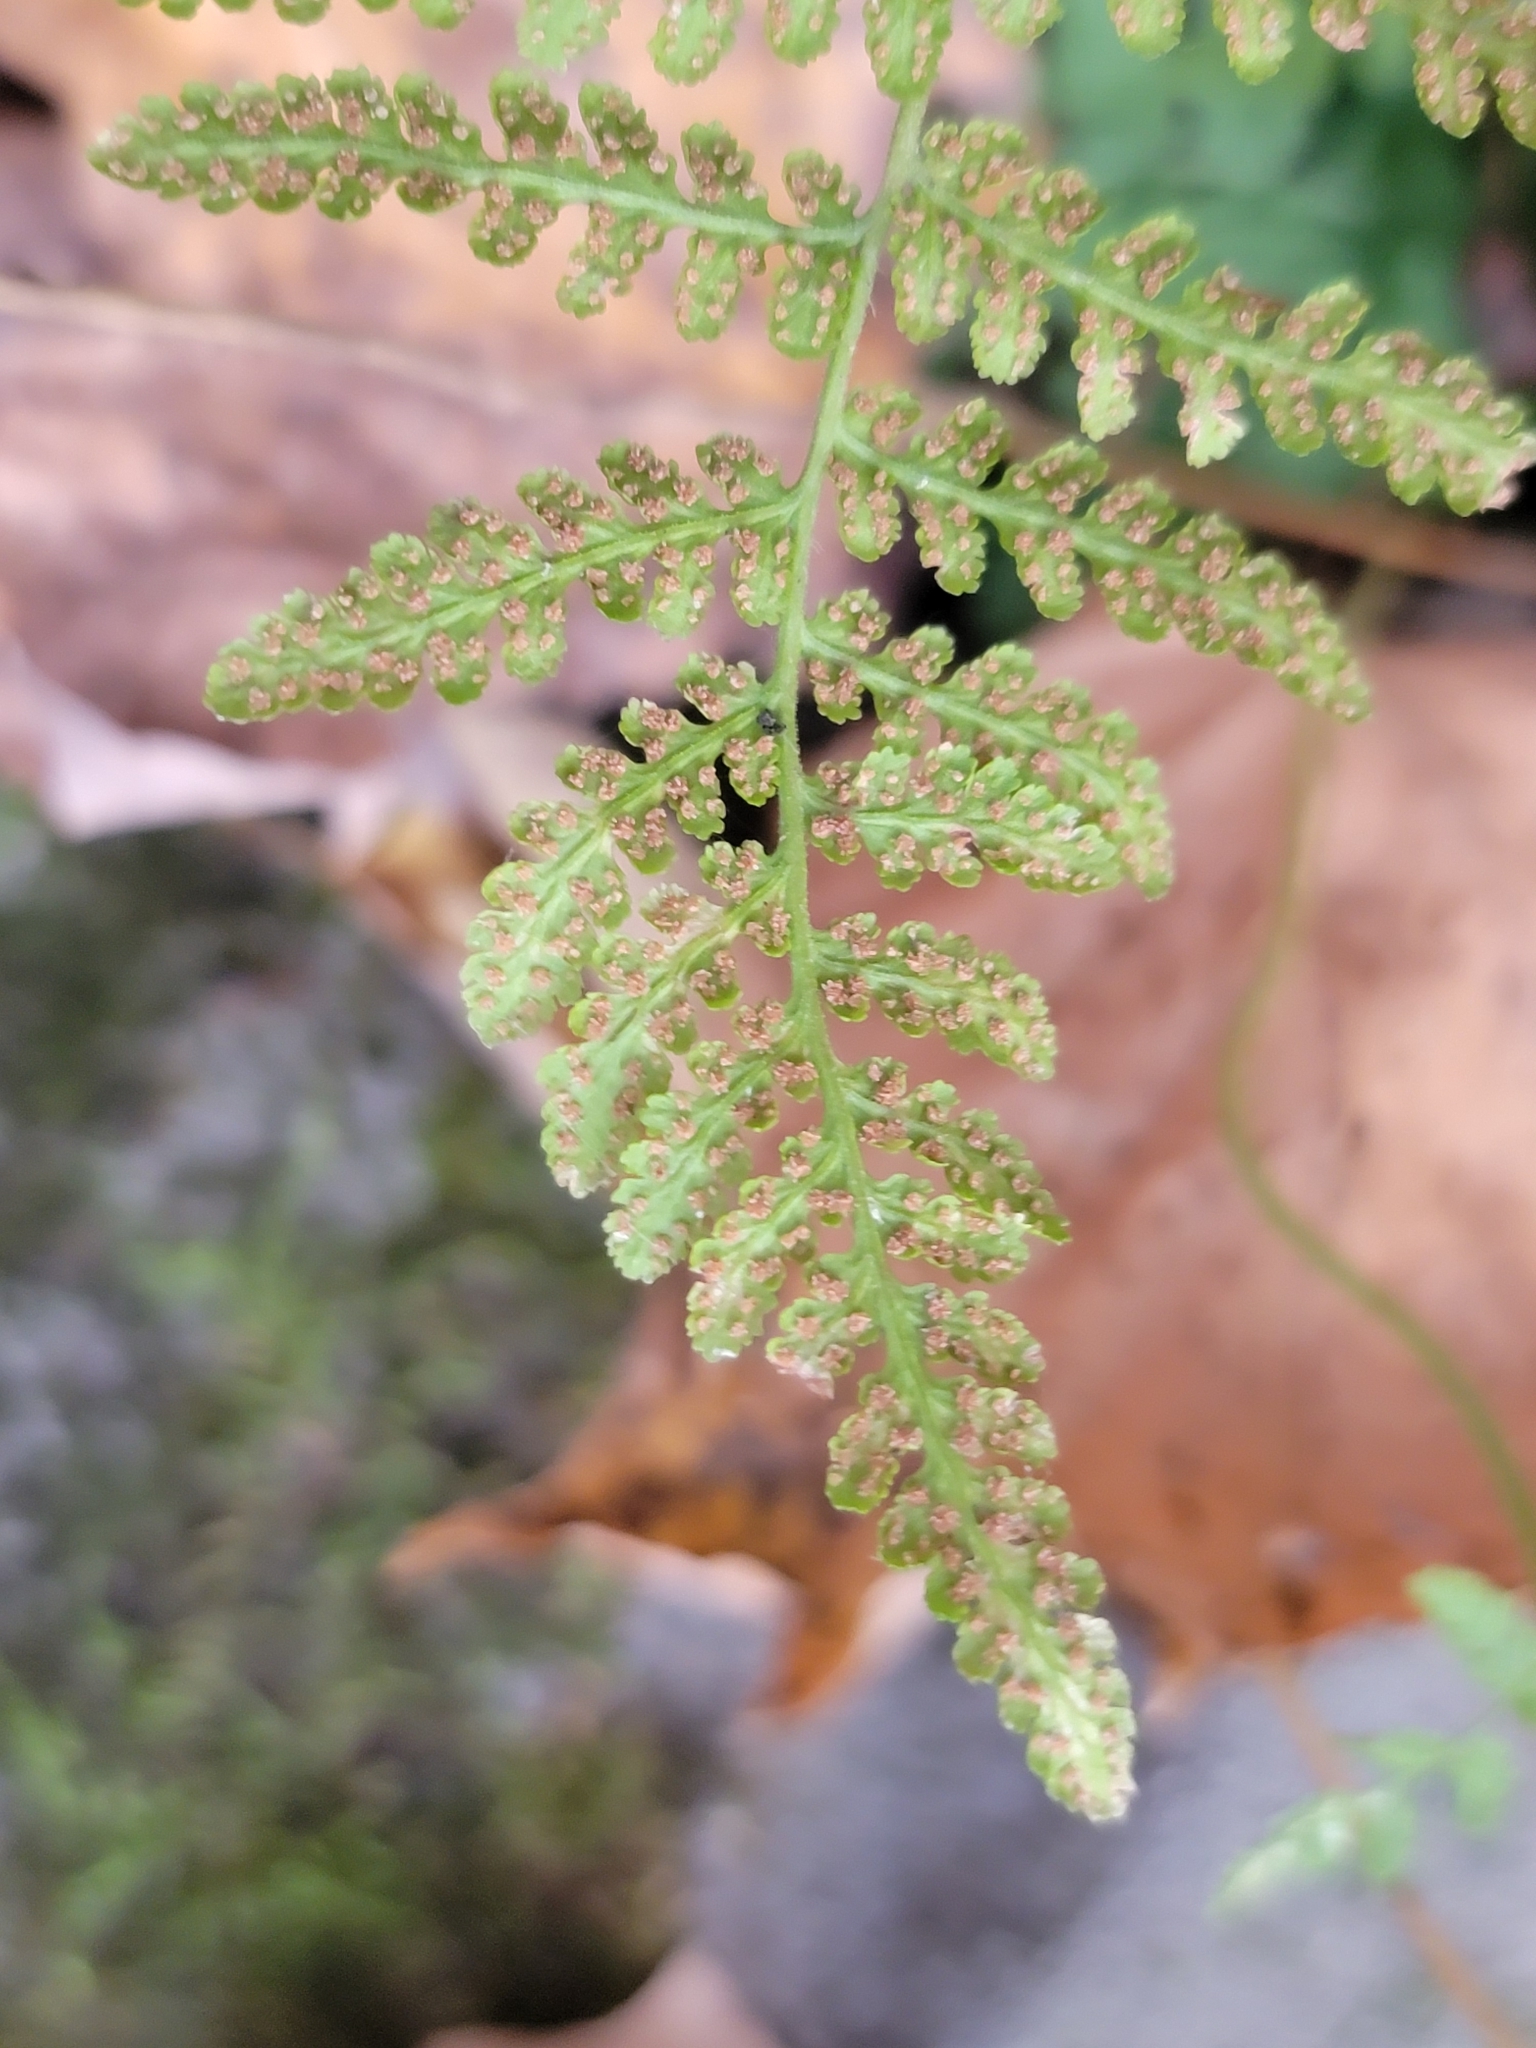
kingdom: Plantae
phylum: Tracheophyta
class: Polypodiopsida
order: Polypodiales
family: Woodsiaceae
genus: Physematium
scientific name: Physematium obtusum
